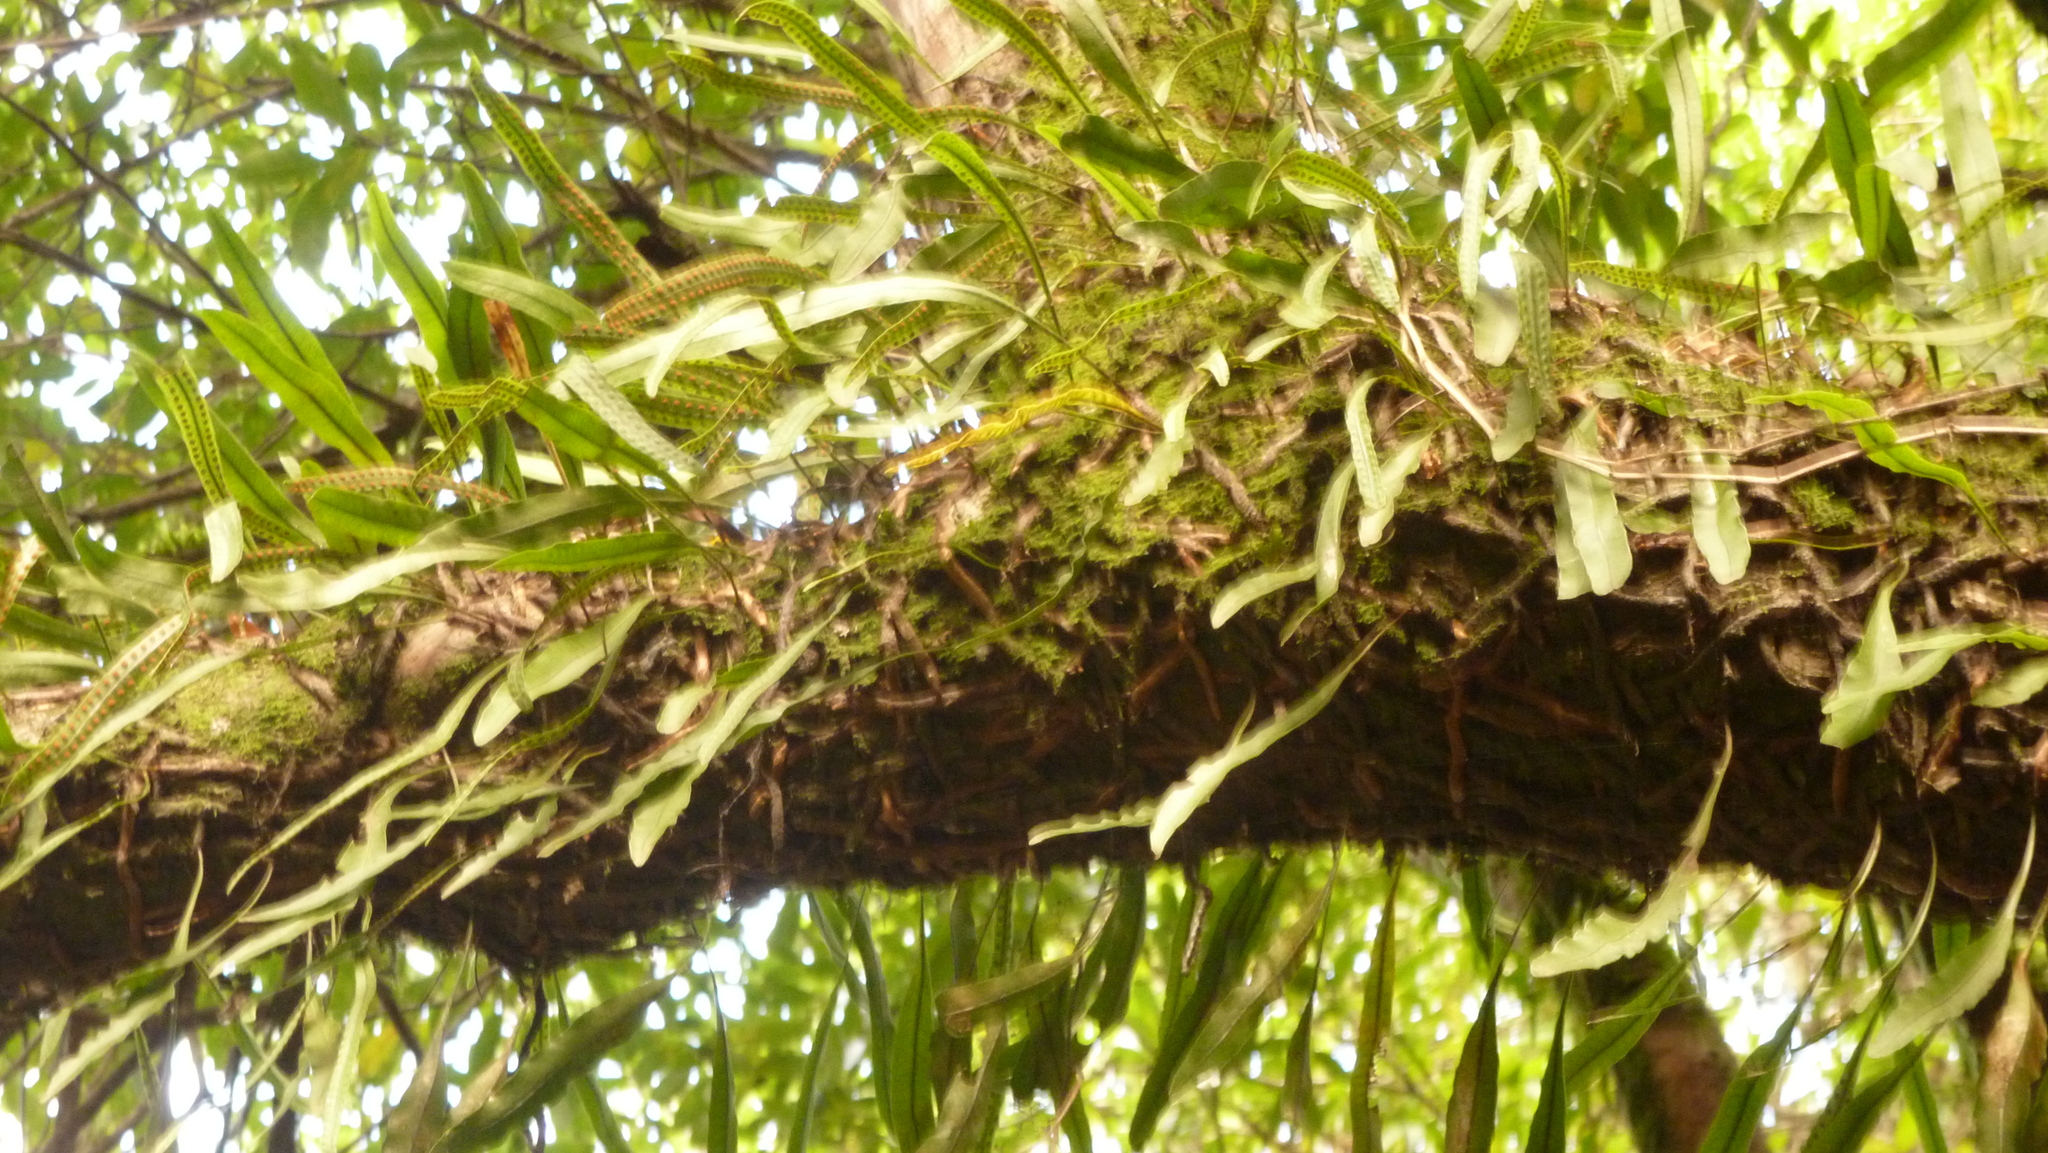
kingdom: Plantae
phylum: Tracheophyta
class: Polypodiopsida
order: Polypodiales
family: Polypodiaceae
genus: Microgramma
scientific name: Microgramma squamulosa
